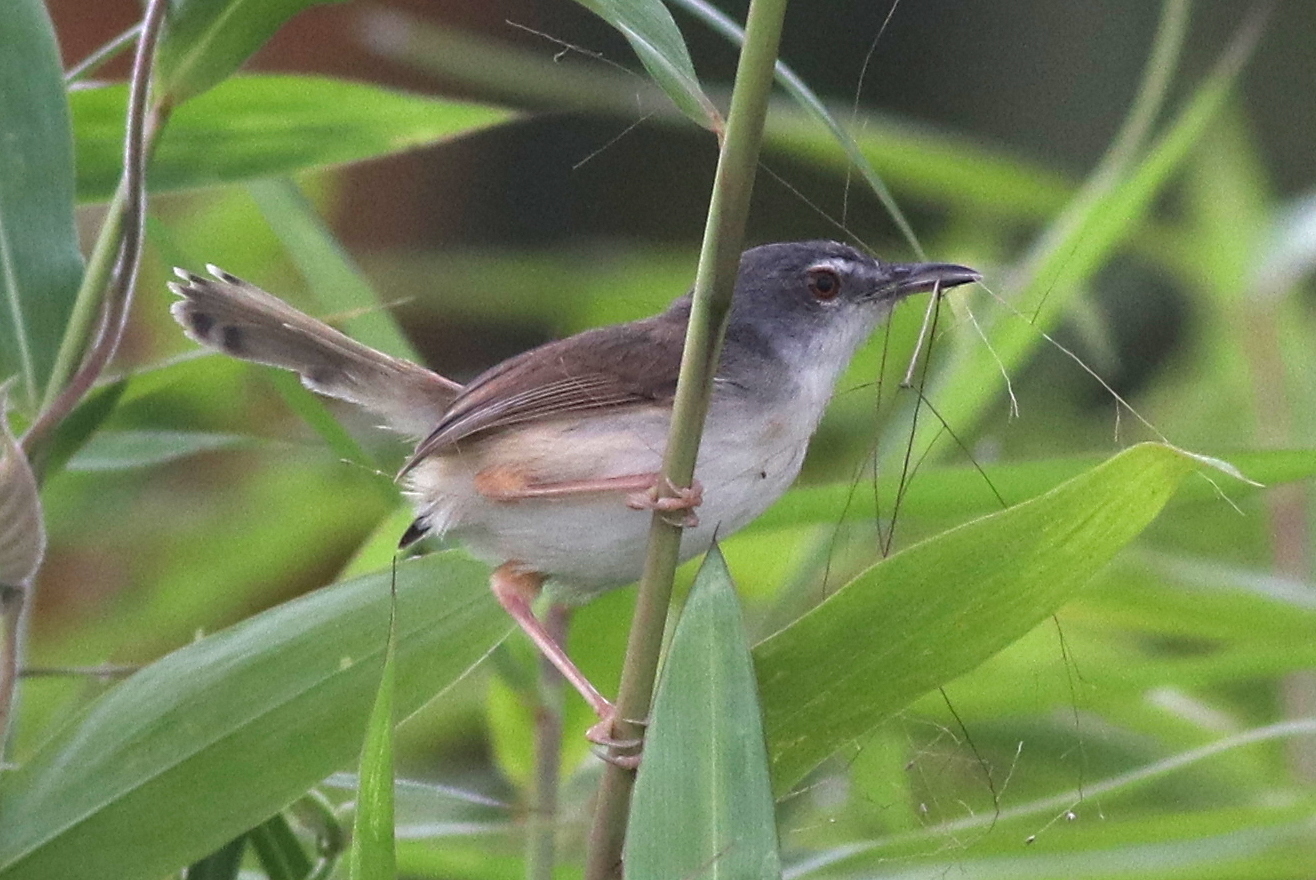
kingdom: Animalia
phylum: Chordata
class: Aves
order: Passeriformes
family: Cisticolidae
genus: Prinia
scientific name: Prinia rufescens
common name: Rufescent prinia
